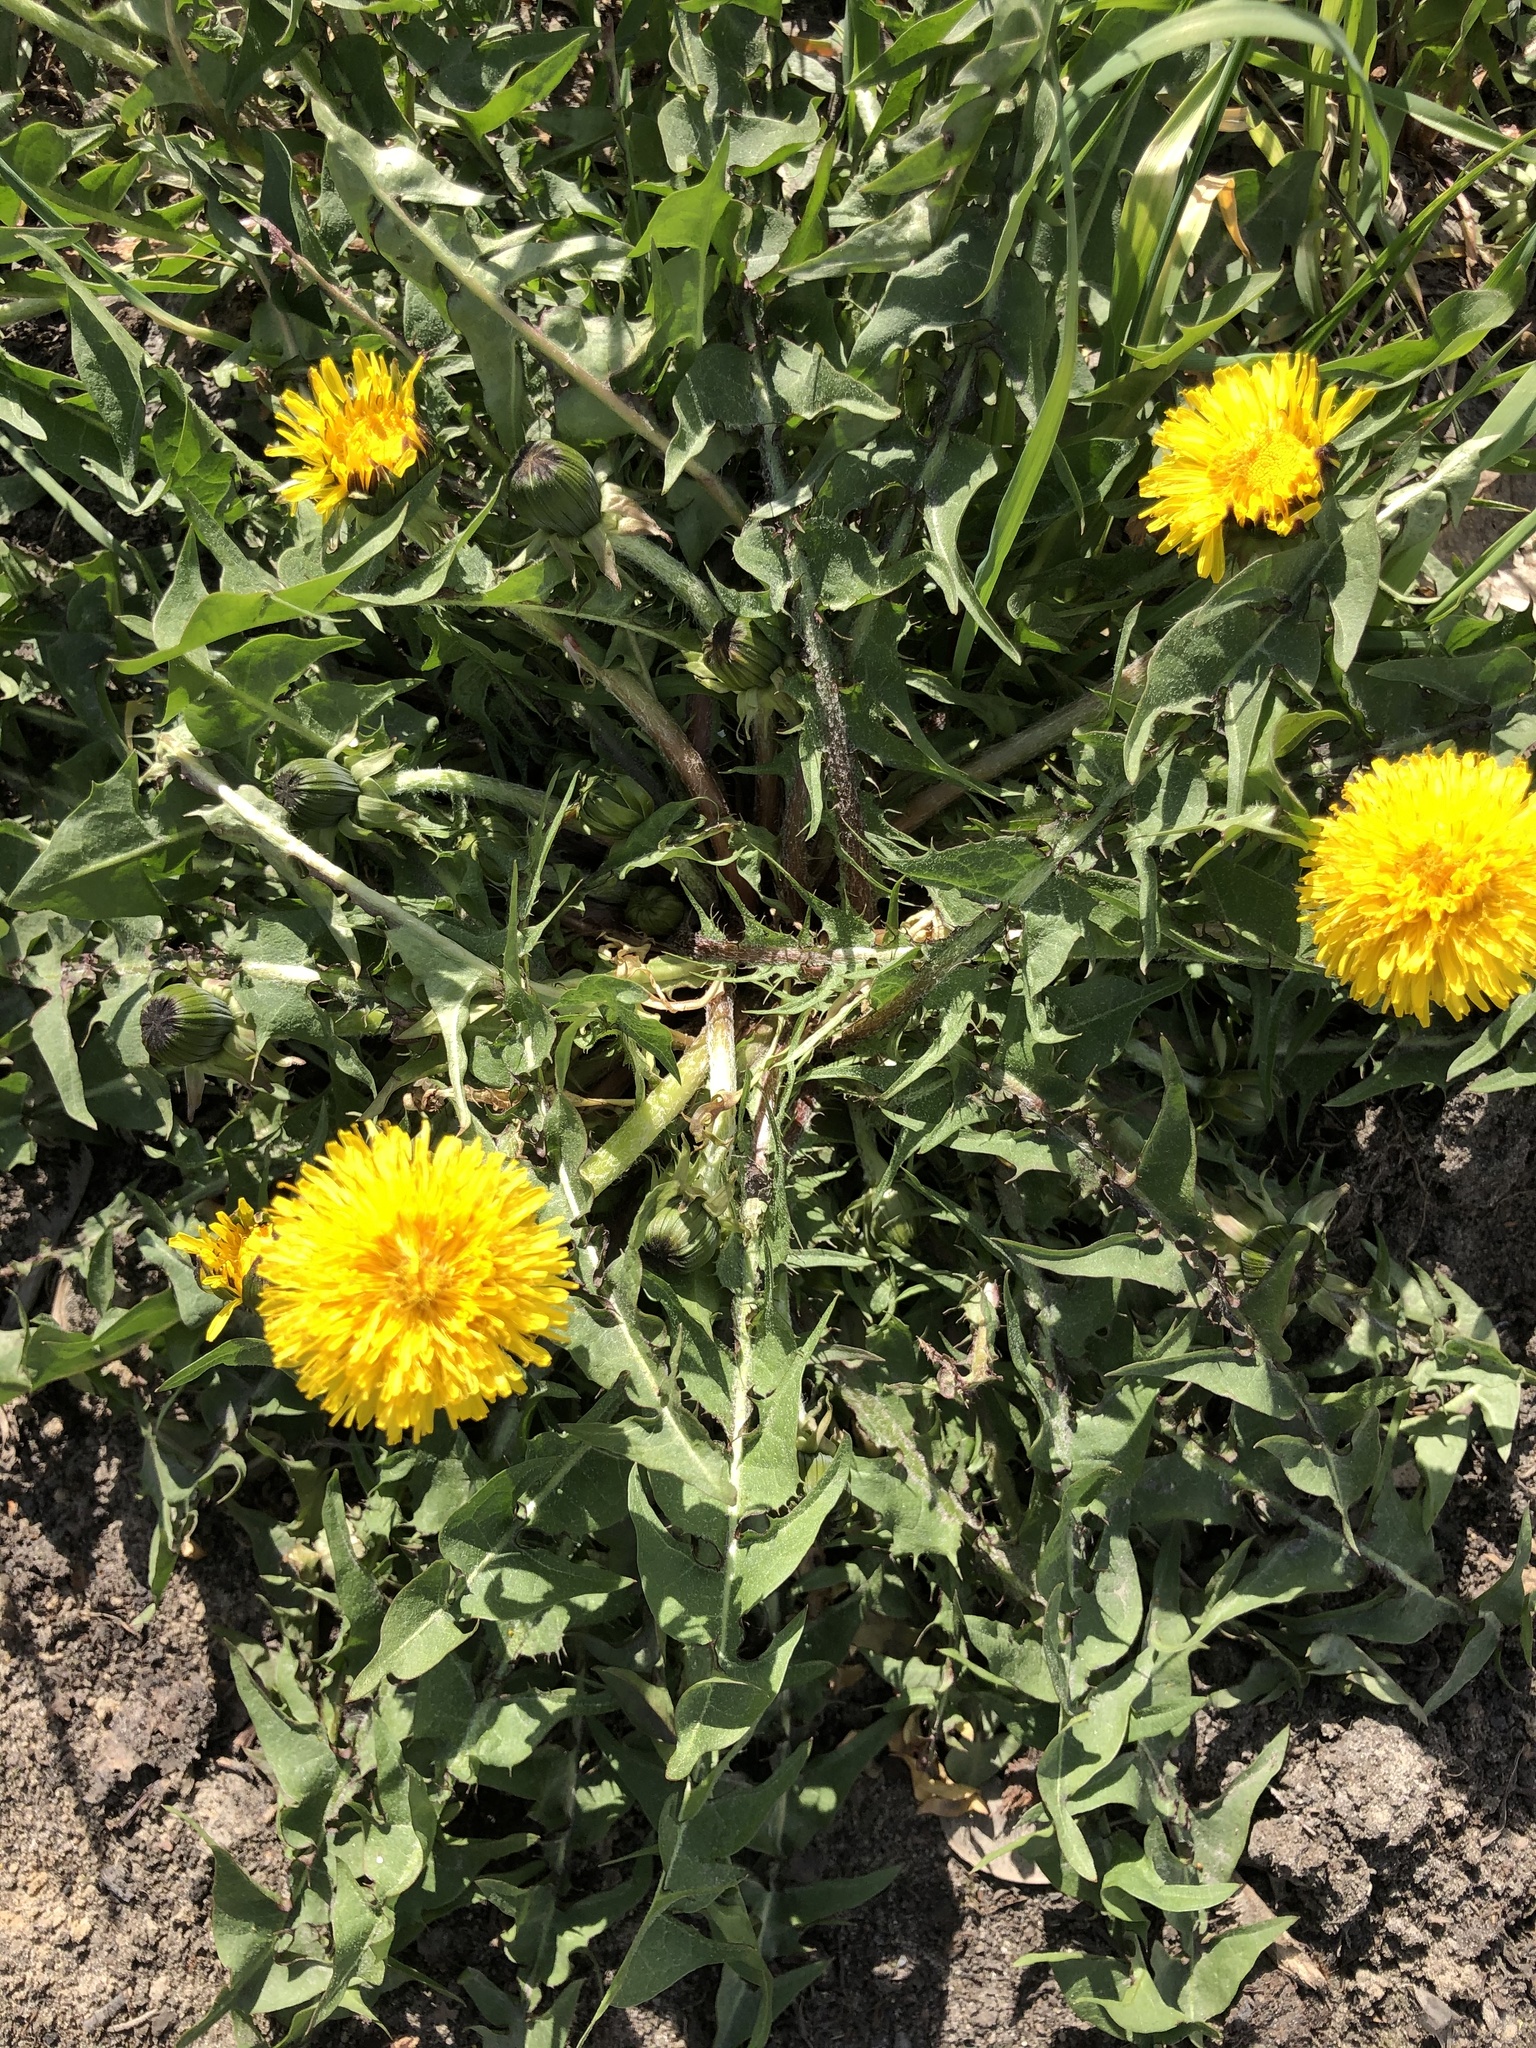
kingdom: Plantae
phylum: Tracheophyta
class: Magnoliopsida
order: Asterales
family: Asteraceae
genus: Taraxacum
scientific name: Taraxacum officinale
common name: Common dandelion
